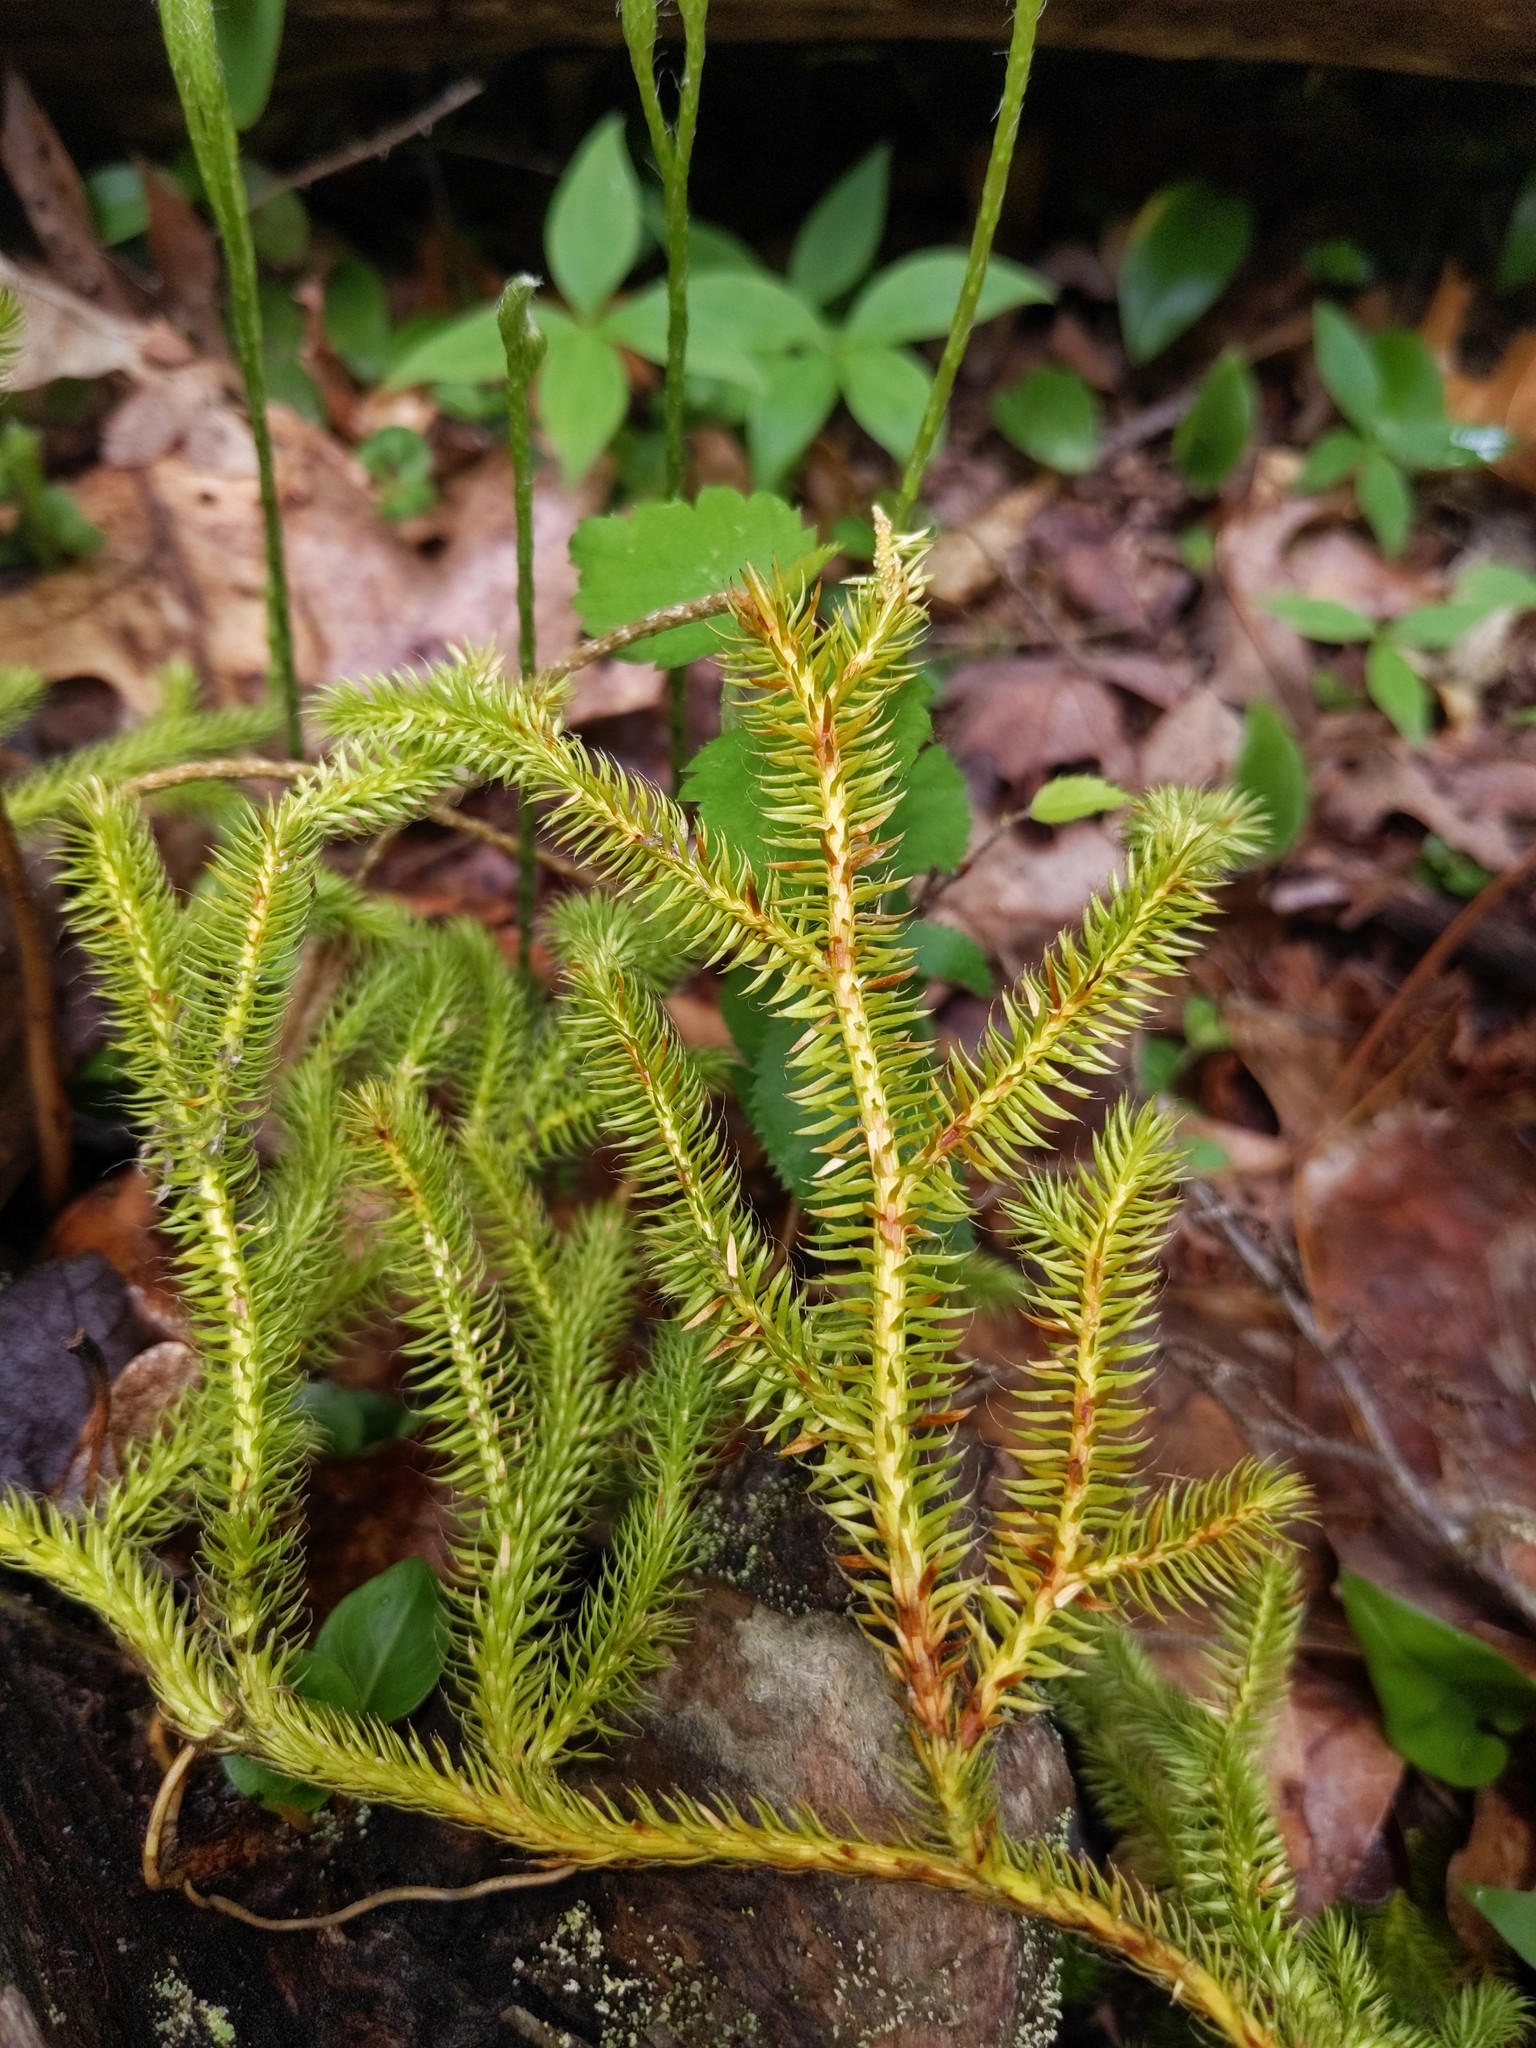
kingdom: Plantae
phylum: Tracheophyta
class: Lycopodiopsida
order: Lycopodiales
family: Lycopodiaceae
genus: Lycopodium
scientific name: Lycopodium clavatum
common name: Stag's-horn clubmoss
